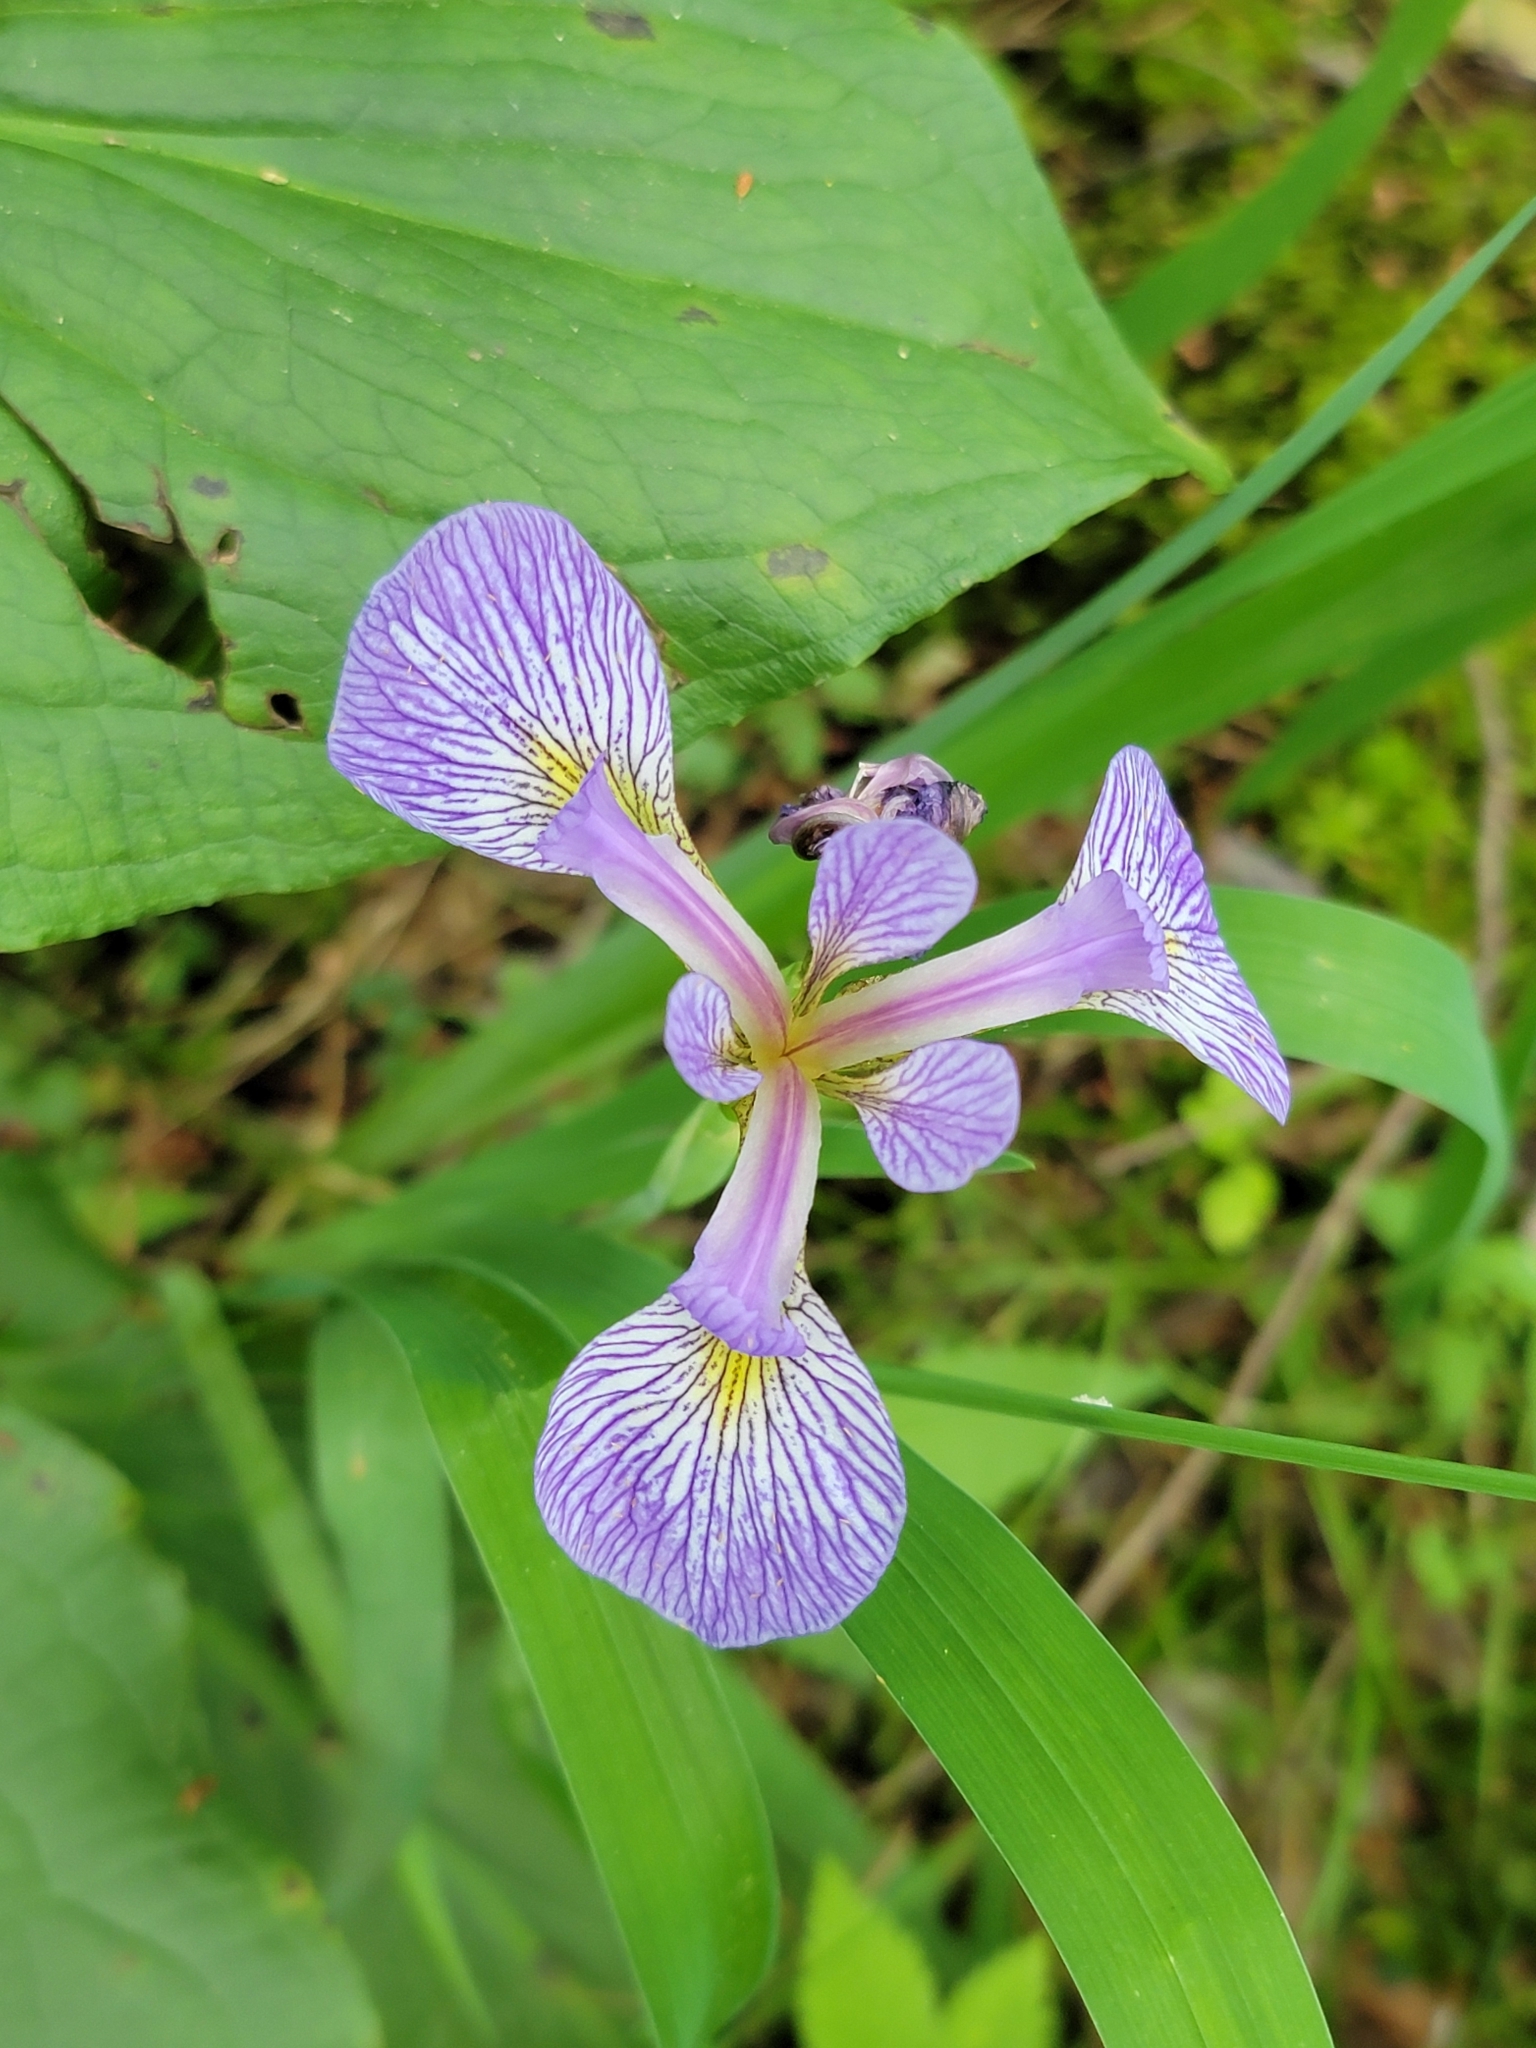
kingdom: Plantae
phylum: Tracheophyta
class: Liliopsida
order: Asparagales
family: Iridaceae
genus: Iris
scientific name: Iris versicolor
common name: Purple iris
